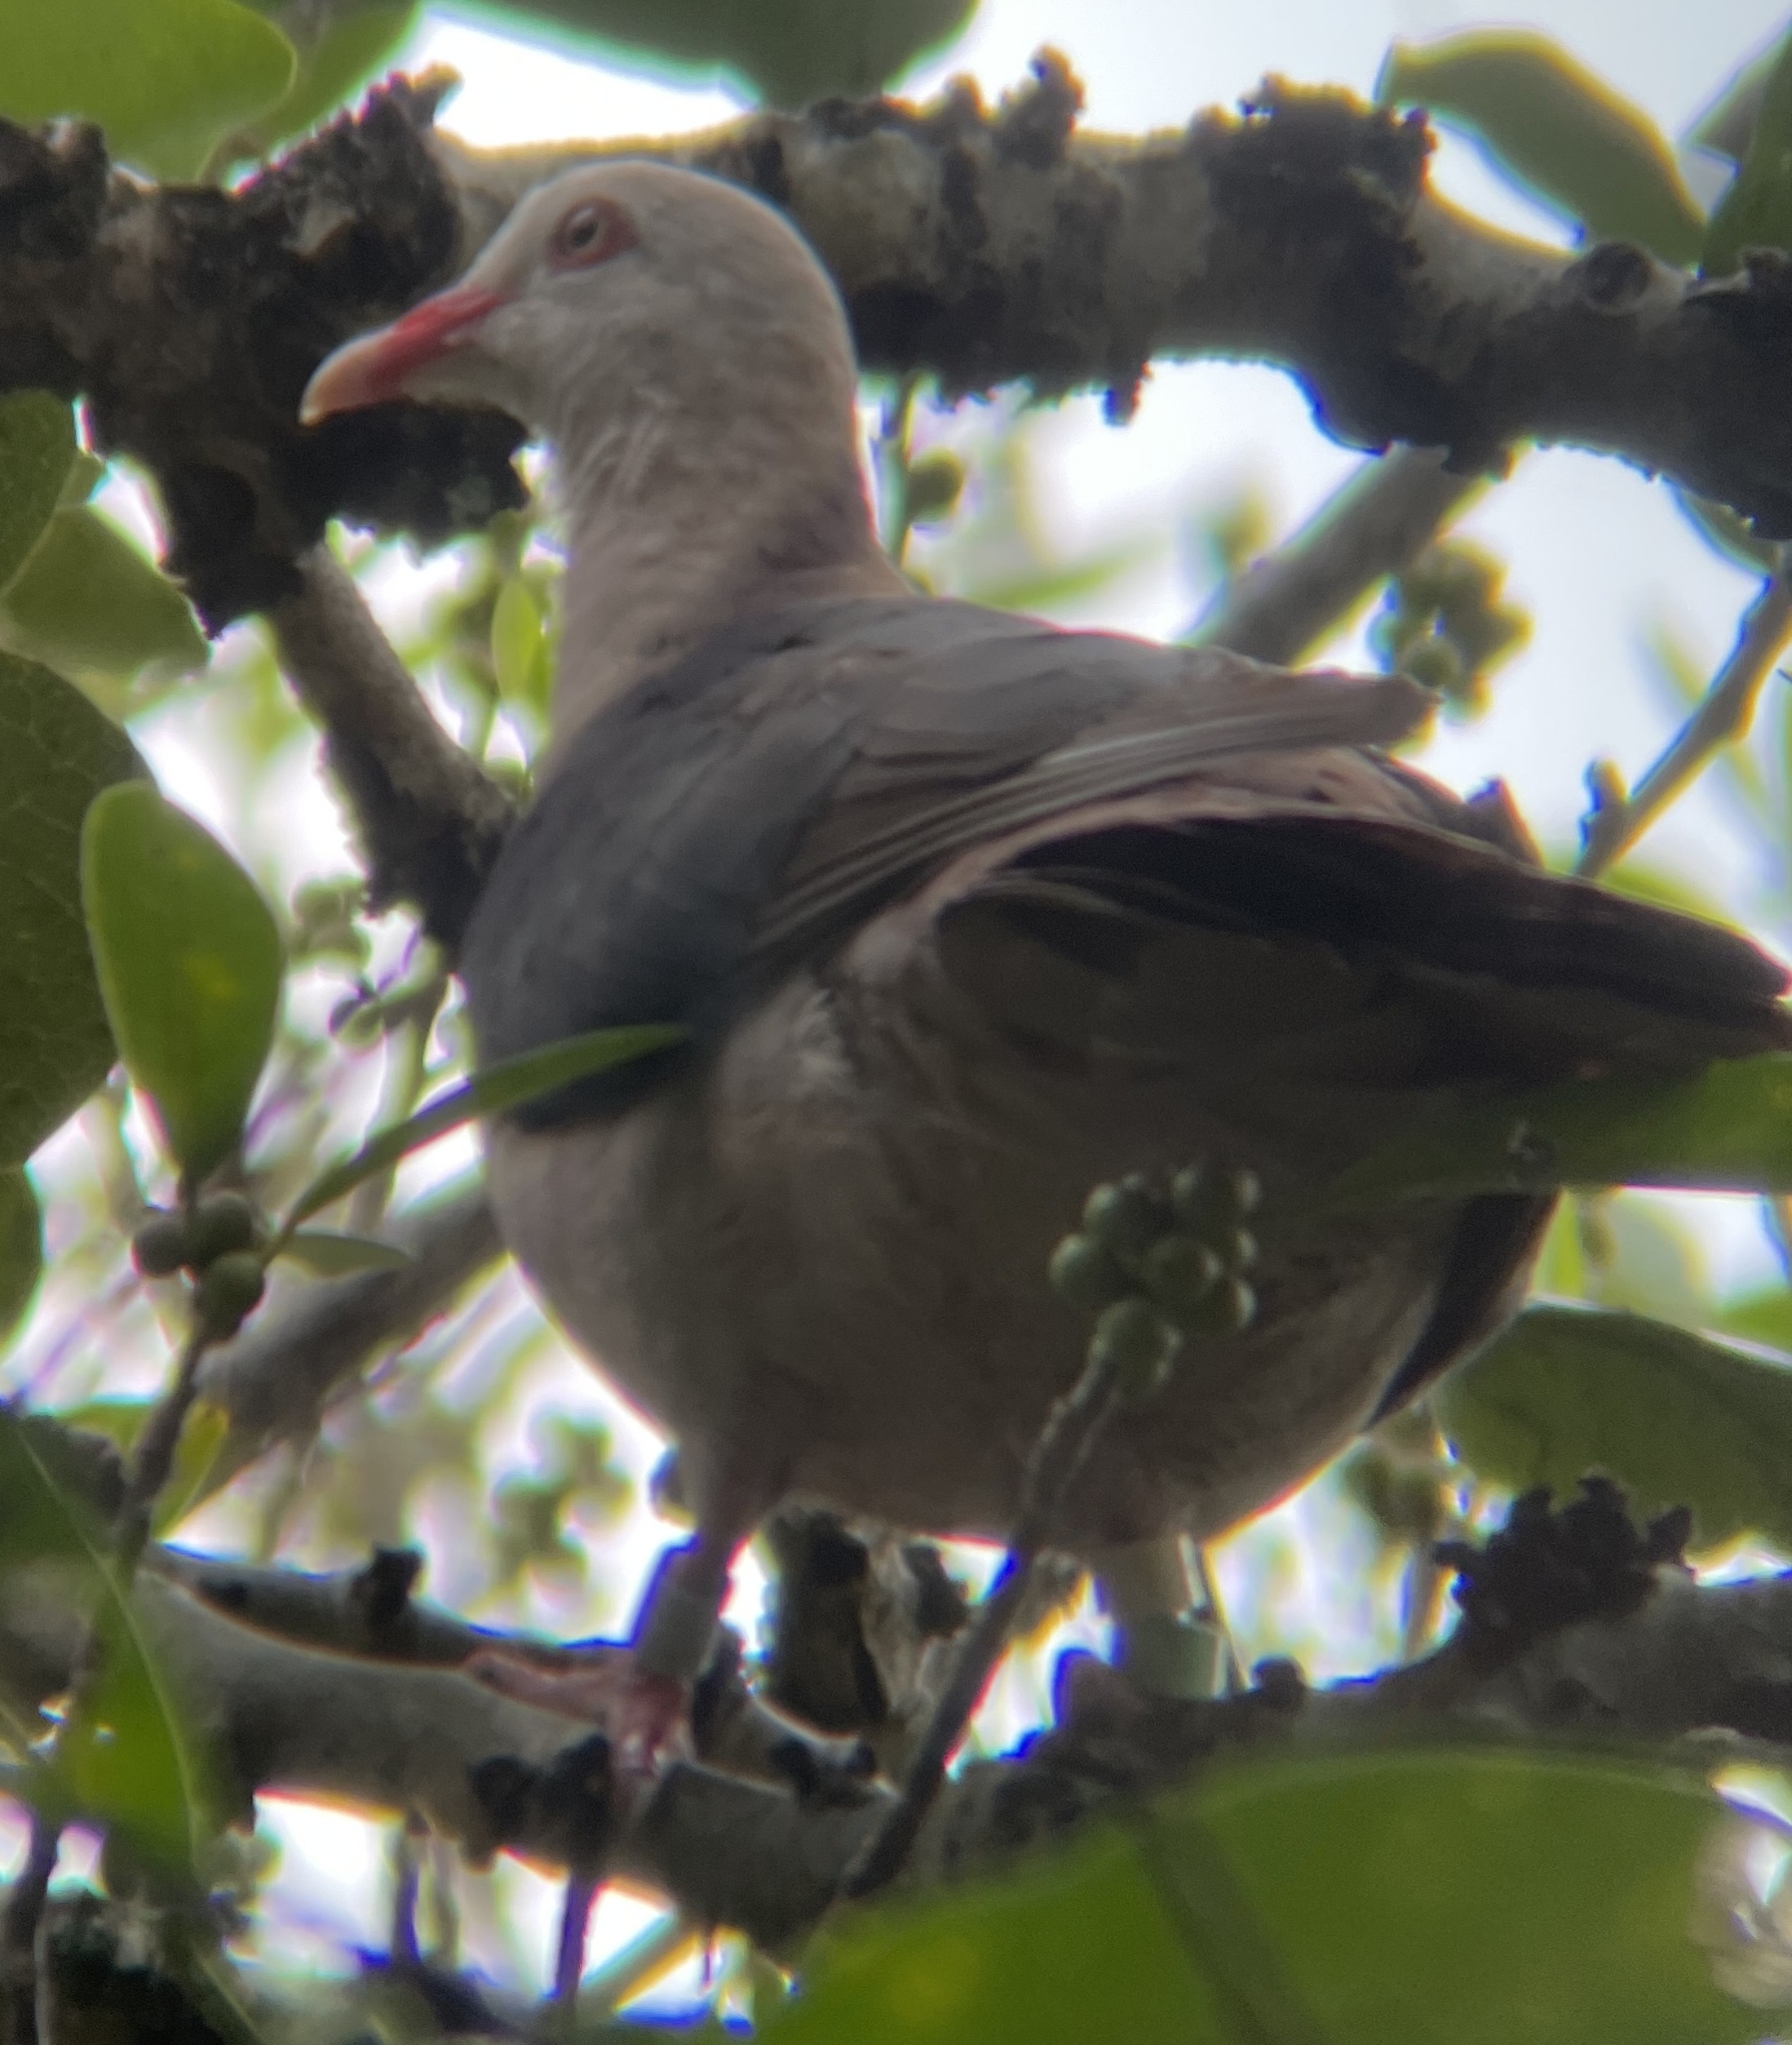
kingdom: Animalia
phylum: Chordata
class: Aves
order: Columbiformes
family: Columbidae
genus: Nesoenas
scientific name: Nesoenas mayeri
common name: Pink pigeon
